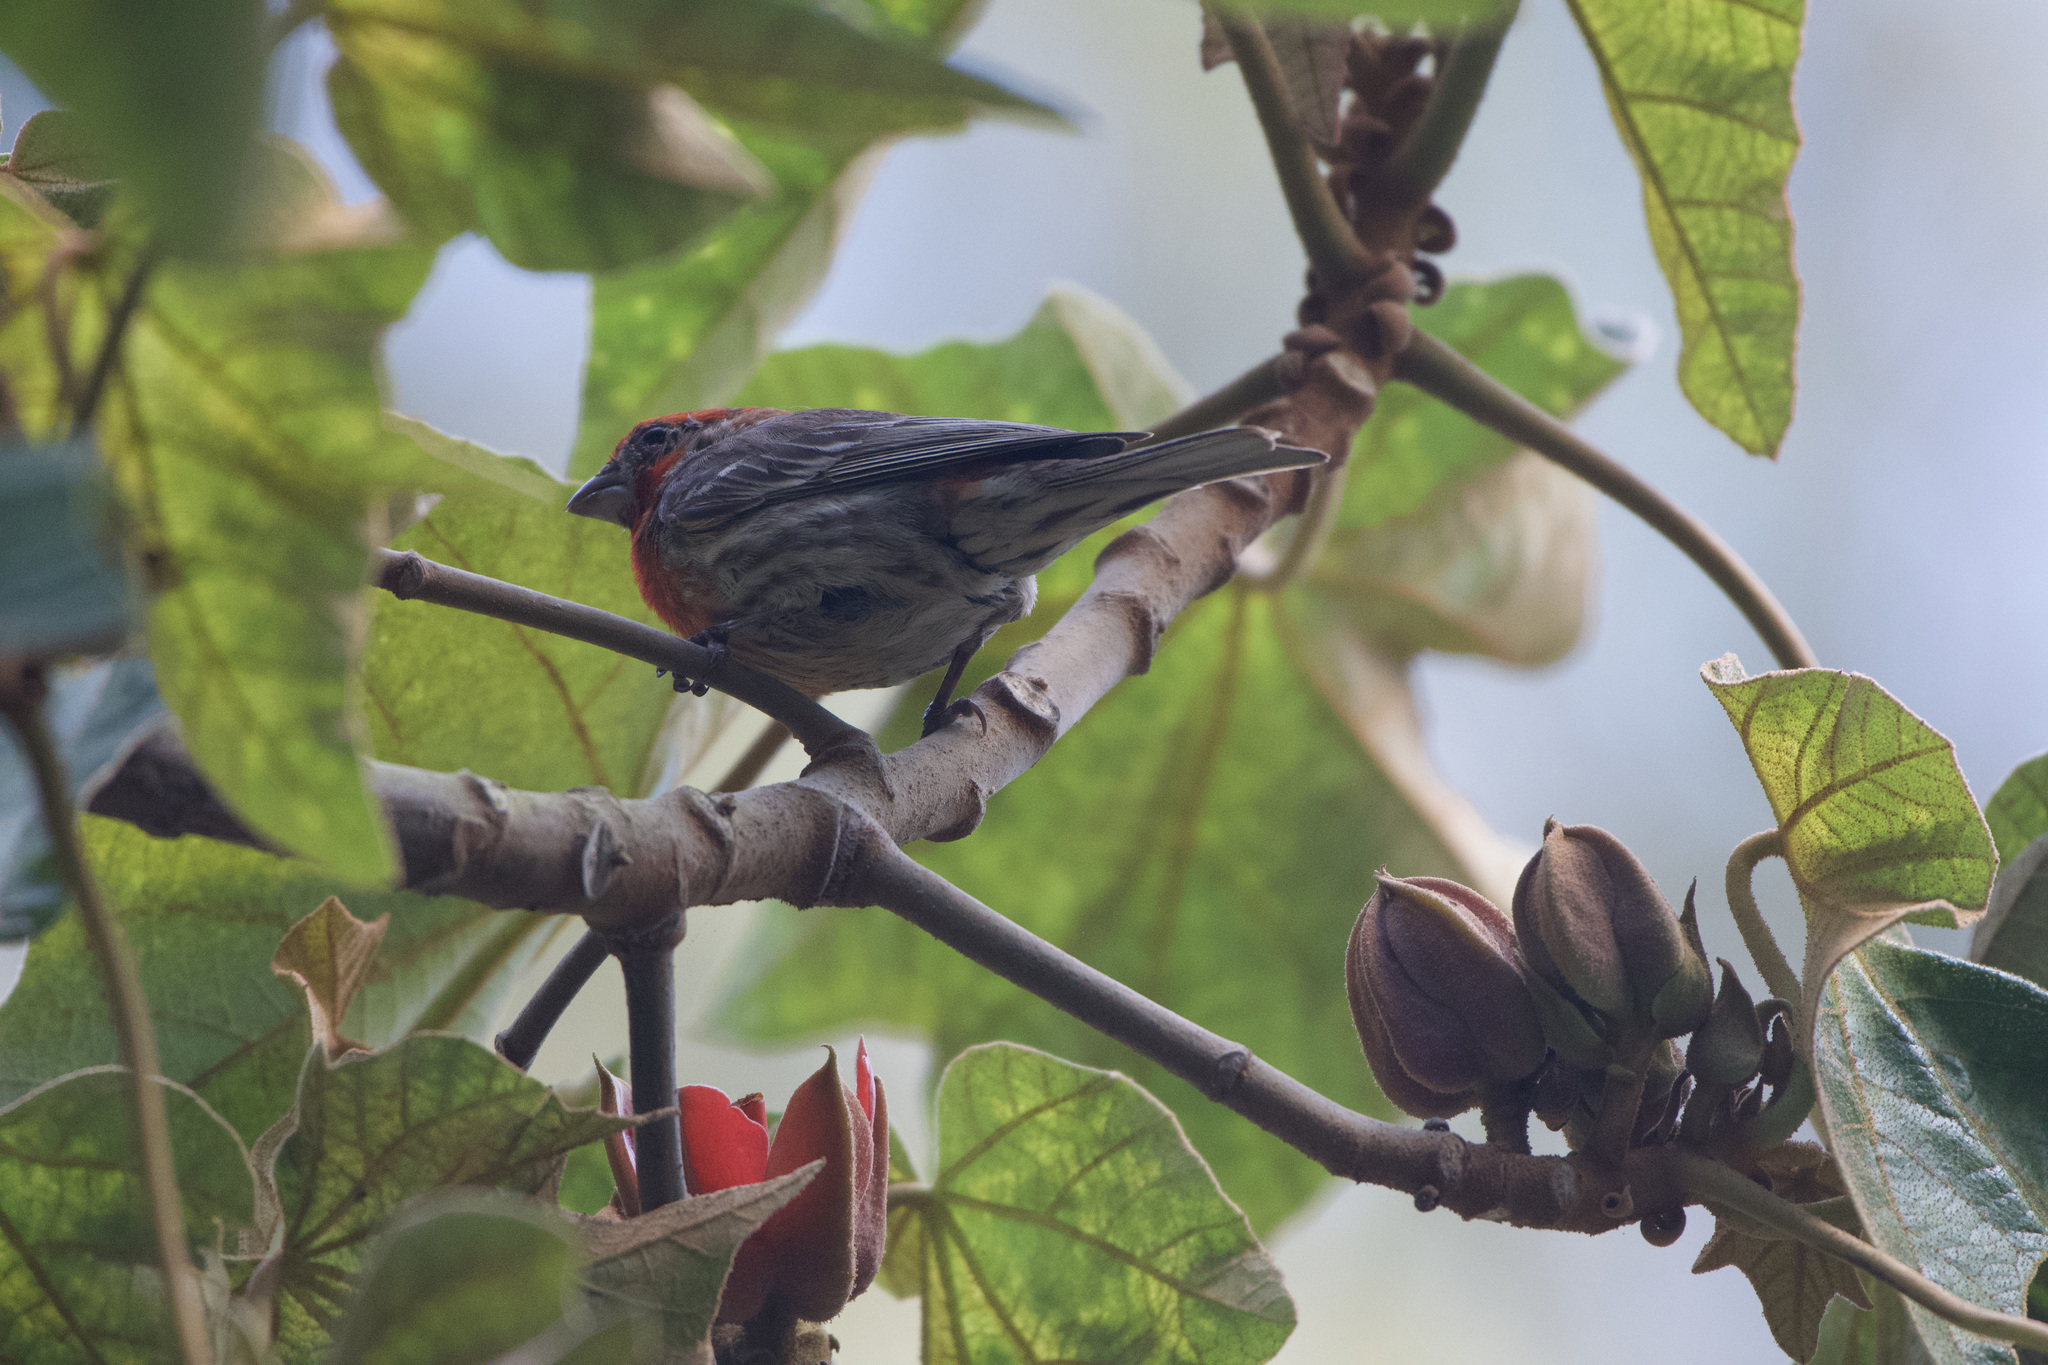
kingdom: Animalia
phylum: Chordata
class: Aves
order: Passeriformes
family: Fringillidae
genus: Haemorhous
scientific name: Haemorhous mexicanus
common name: House finch
